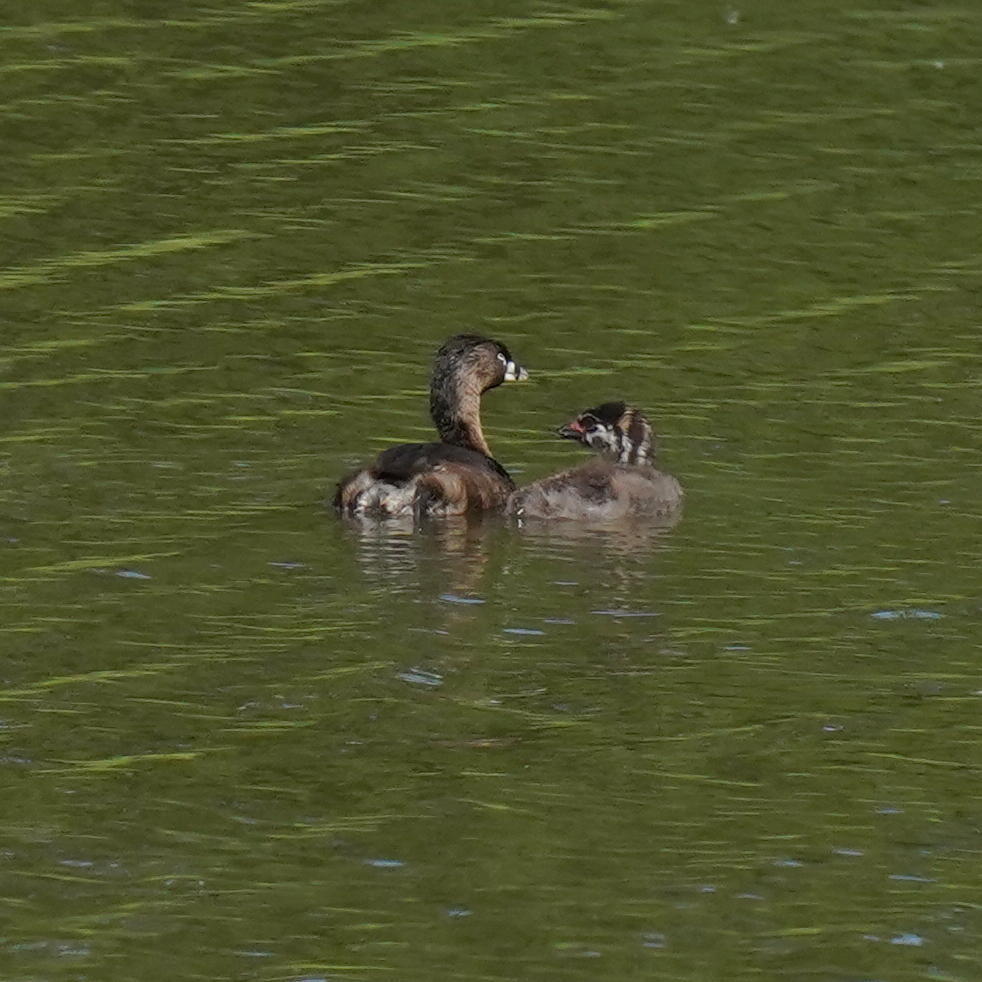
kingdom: Animalia
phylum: Chordata
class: Aves
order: Podicipediformes
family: Podicipedidae
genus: Podilymbus
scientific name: Podilymbus podiceps
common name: Pied-billed grebe
